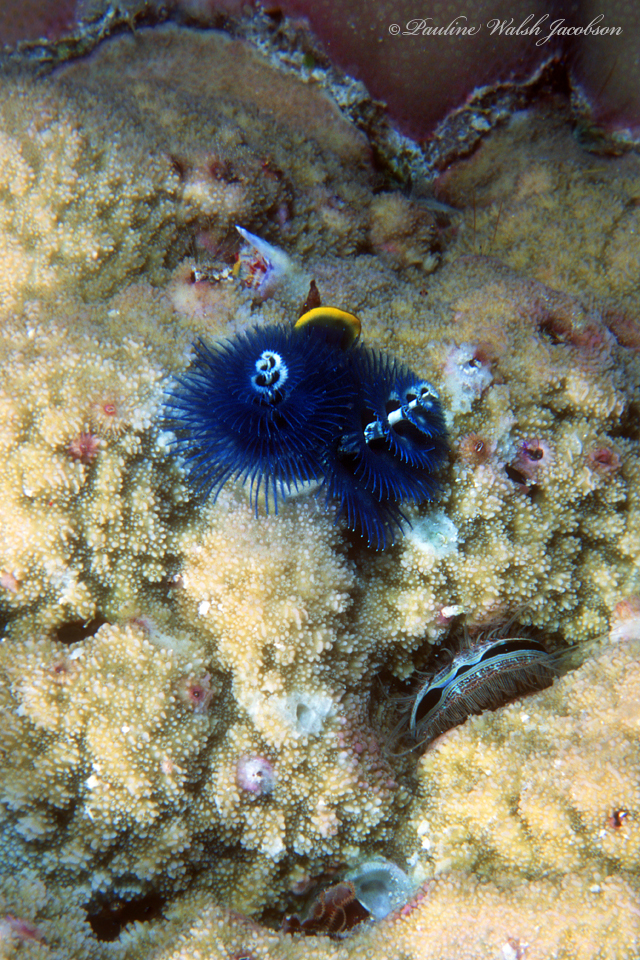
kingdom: Animalia
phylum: Annelida
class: Polychaeta
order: Sabellida
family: Serpulidae
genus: Spirobranchus
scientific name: Spirobranchus corniculatus
